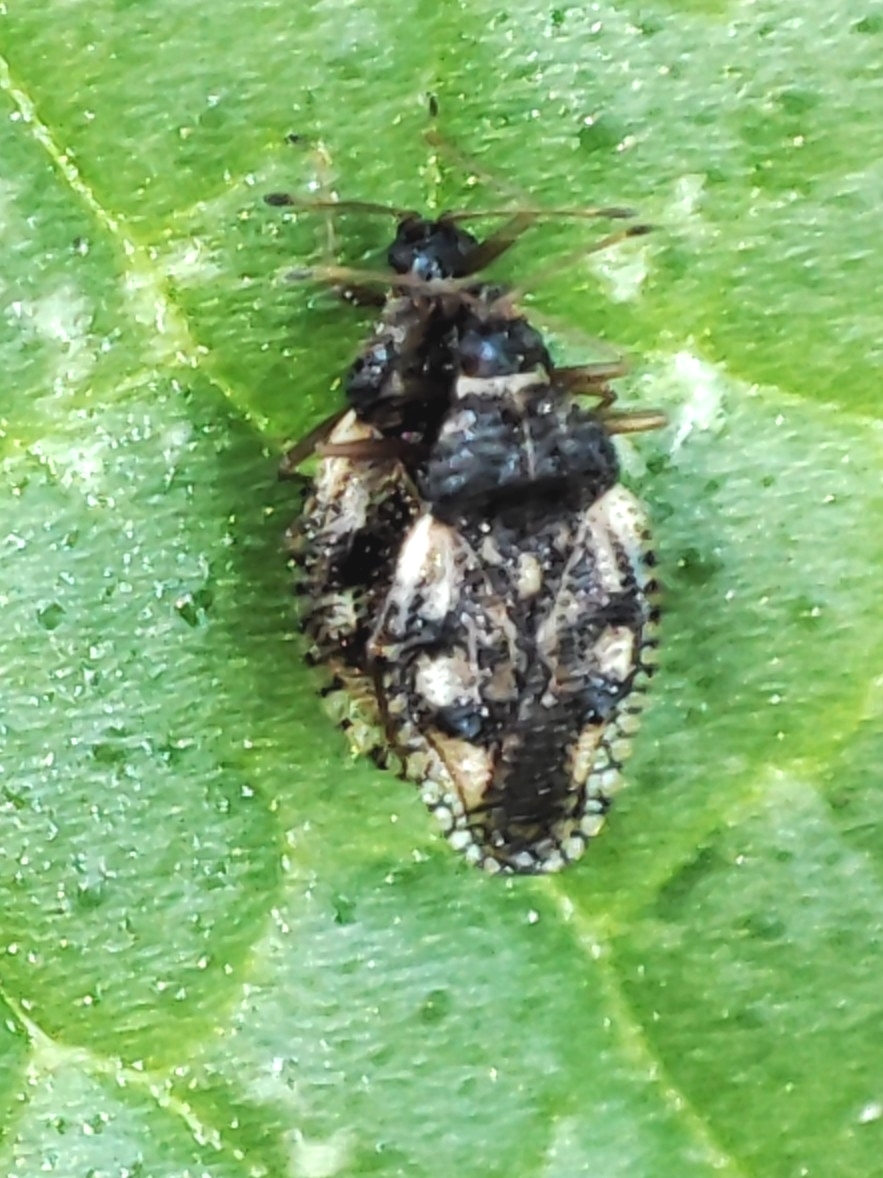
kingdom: Animalia
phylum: Arthropoda
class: Insecta
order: Hemiptera
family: Tingidae
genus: Dictyla
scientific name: Dictyla humuli
